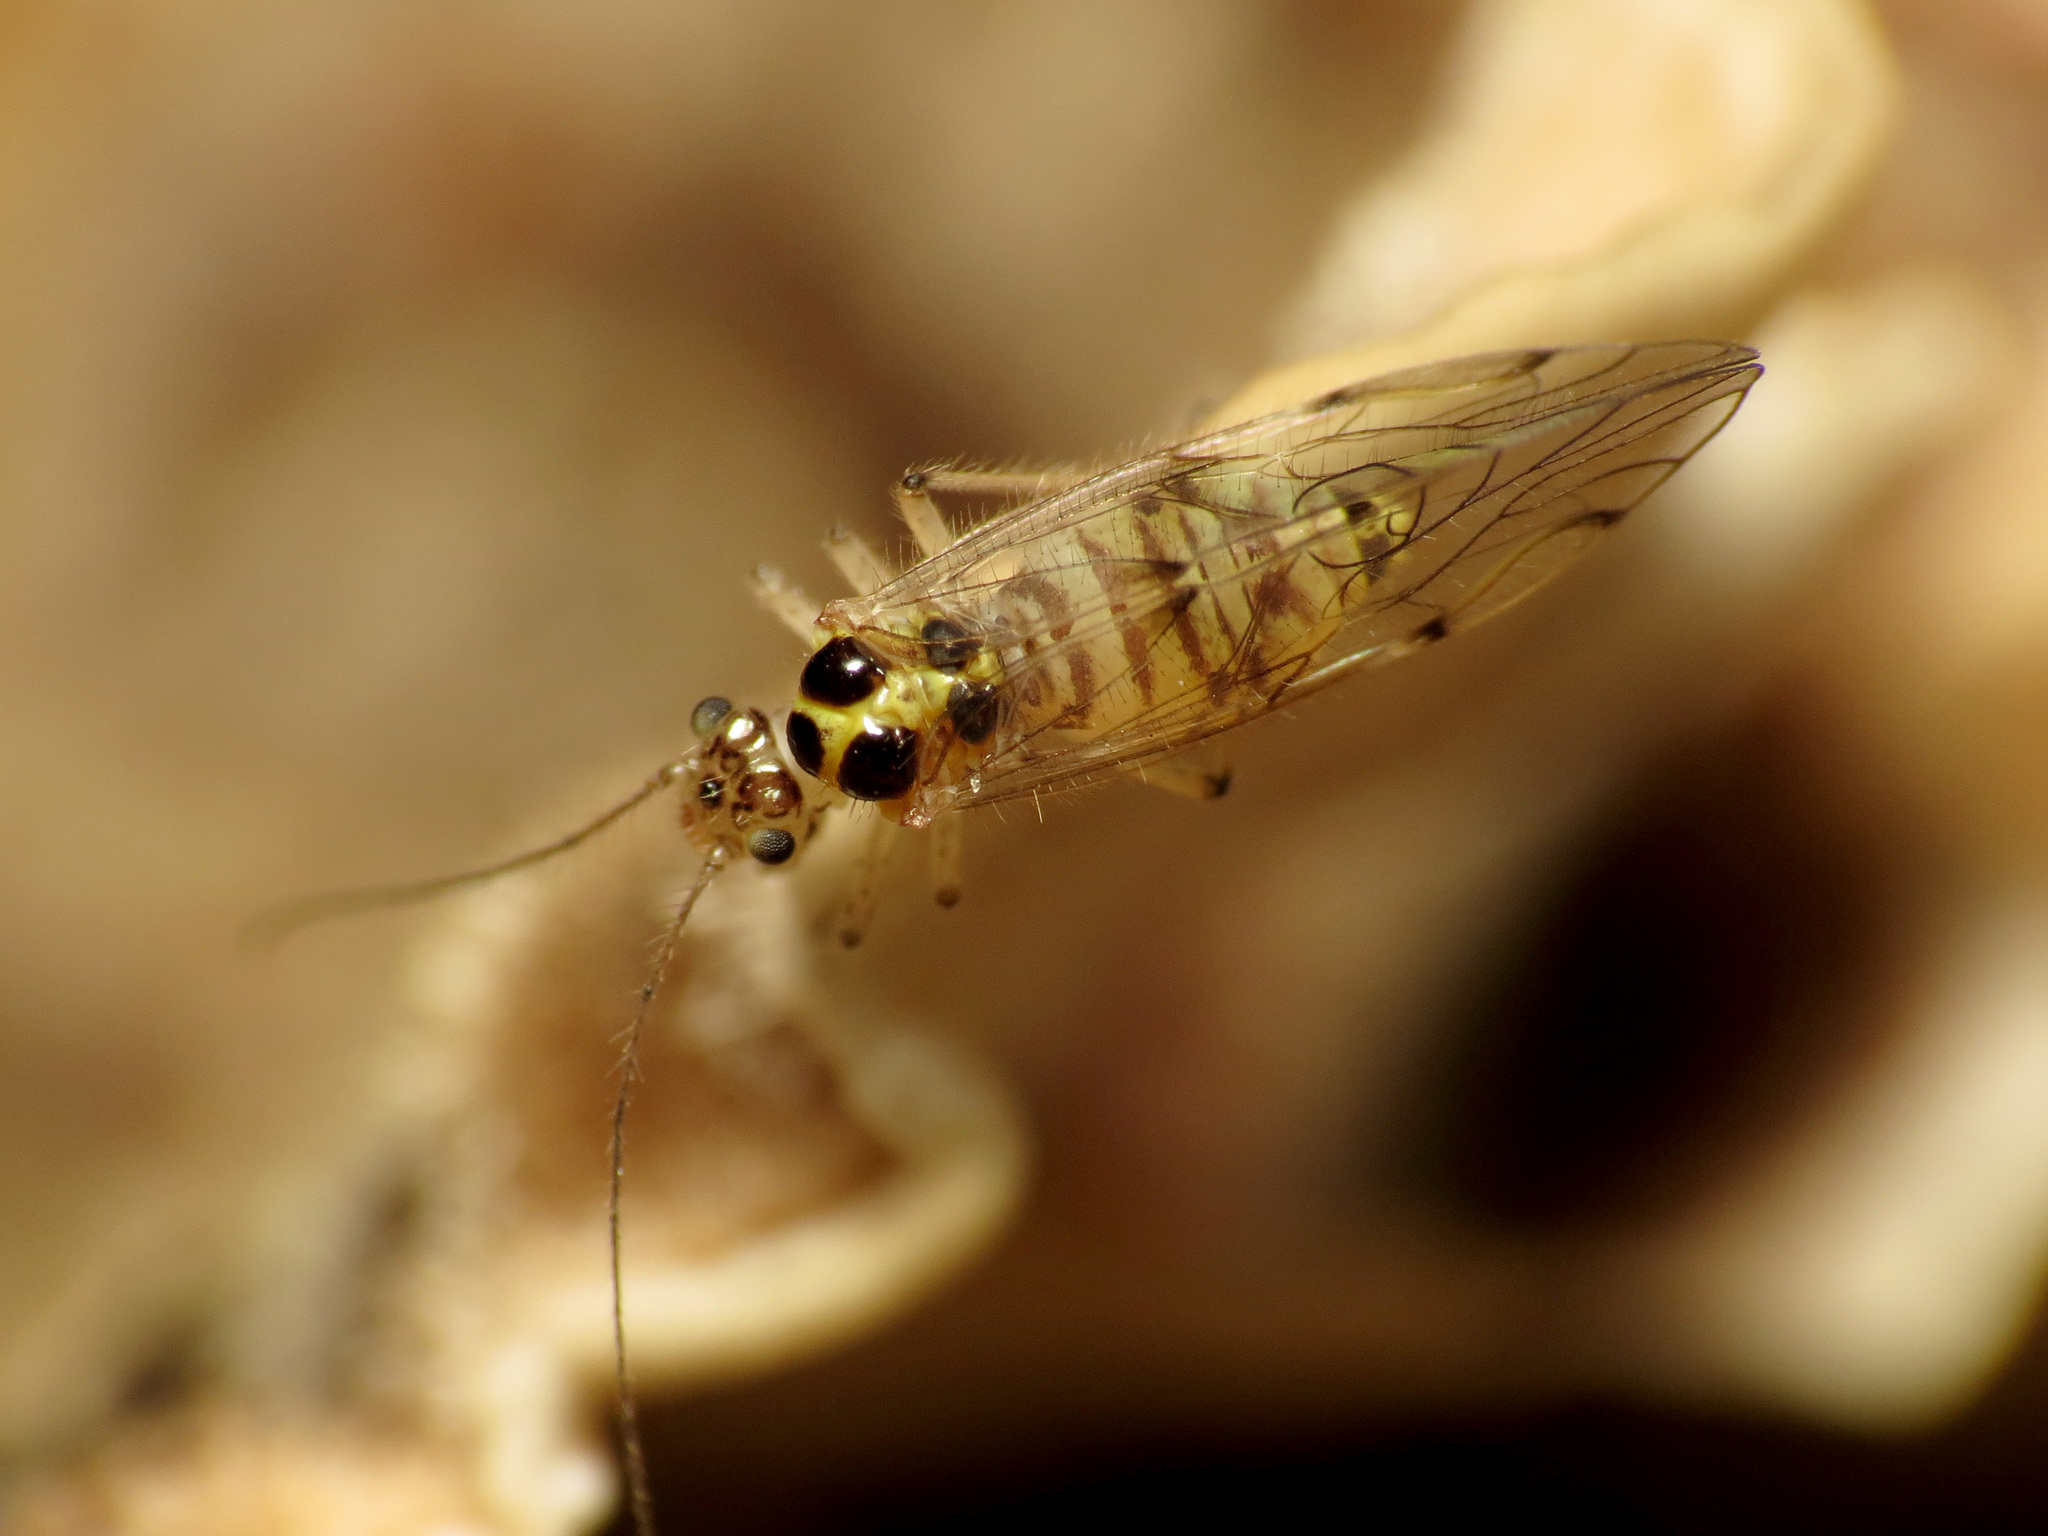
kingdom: Animalia
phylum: Arthropoda
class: Insecta
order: Psocodea
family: Dasydemellidae
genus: Teliapsocus
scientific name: Teliapsocus conterminus
